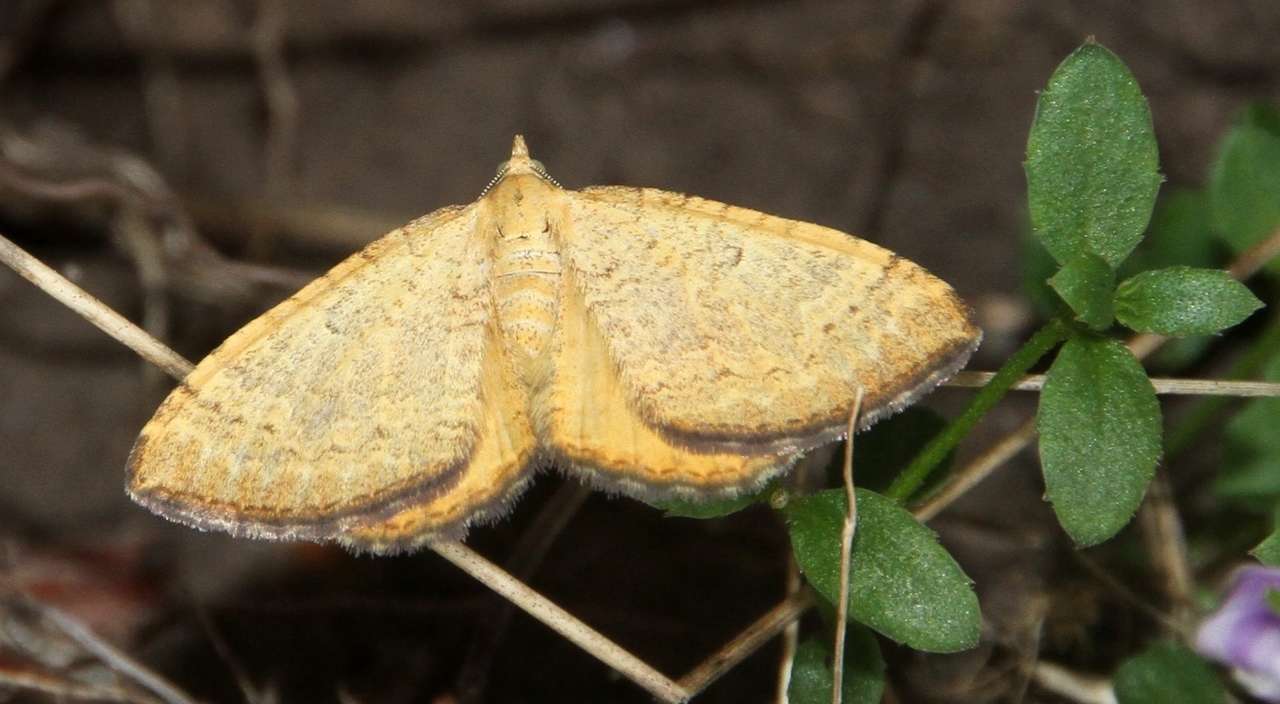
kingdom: Animalia
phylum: Arthropoda
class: Insecta
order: Lepidoptera
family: Geometridae
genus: Chrysolarentia
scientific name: Chrysolarentia
